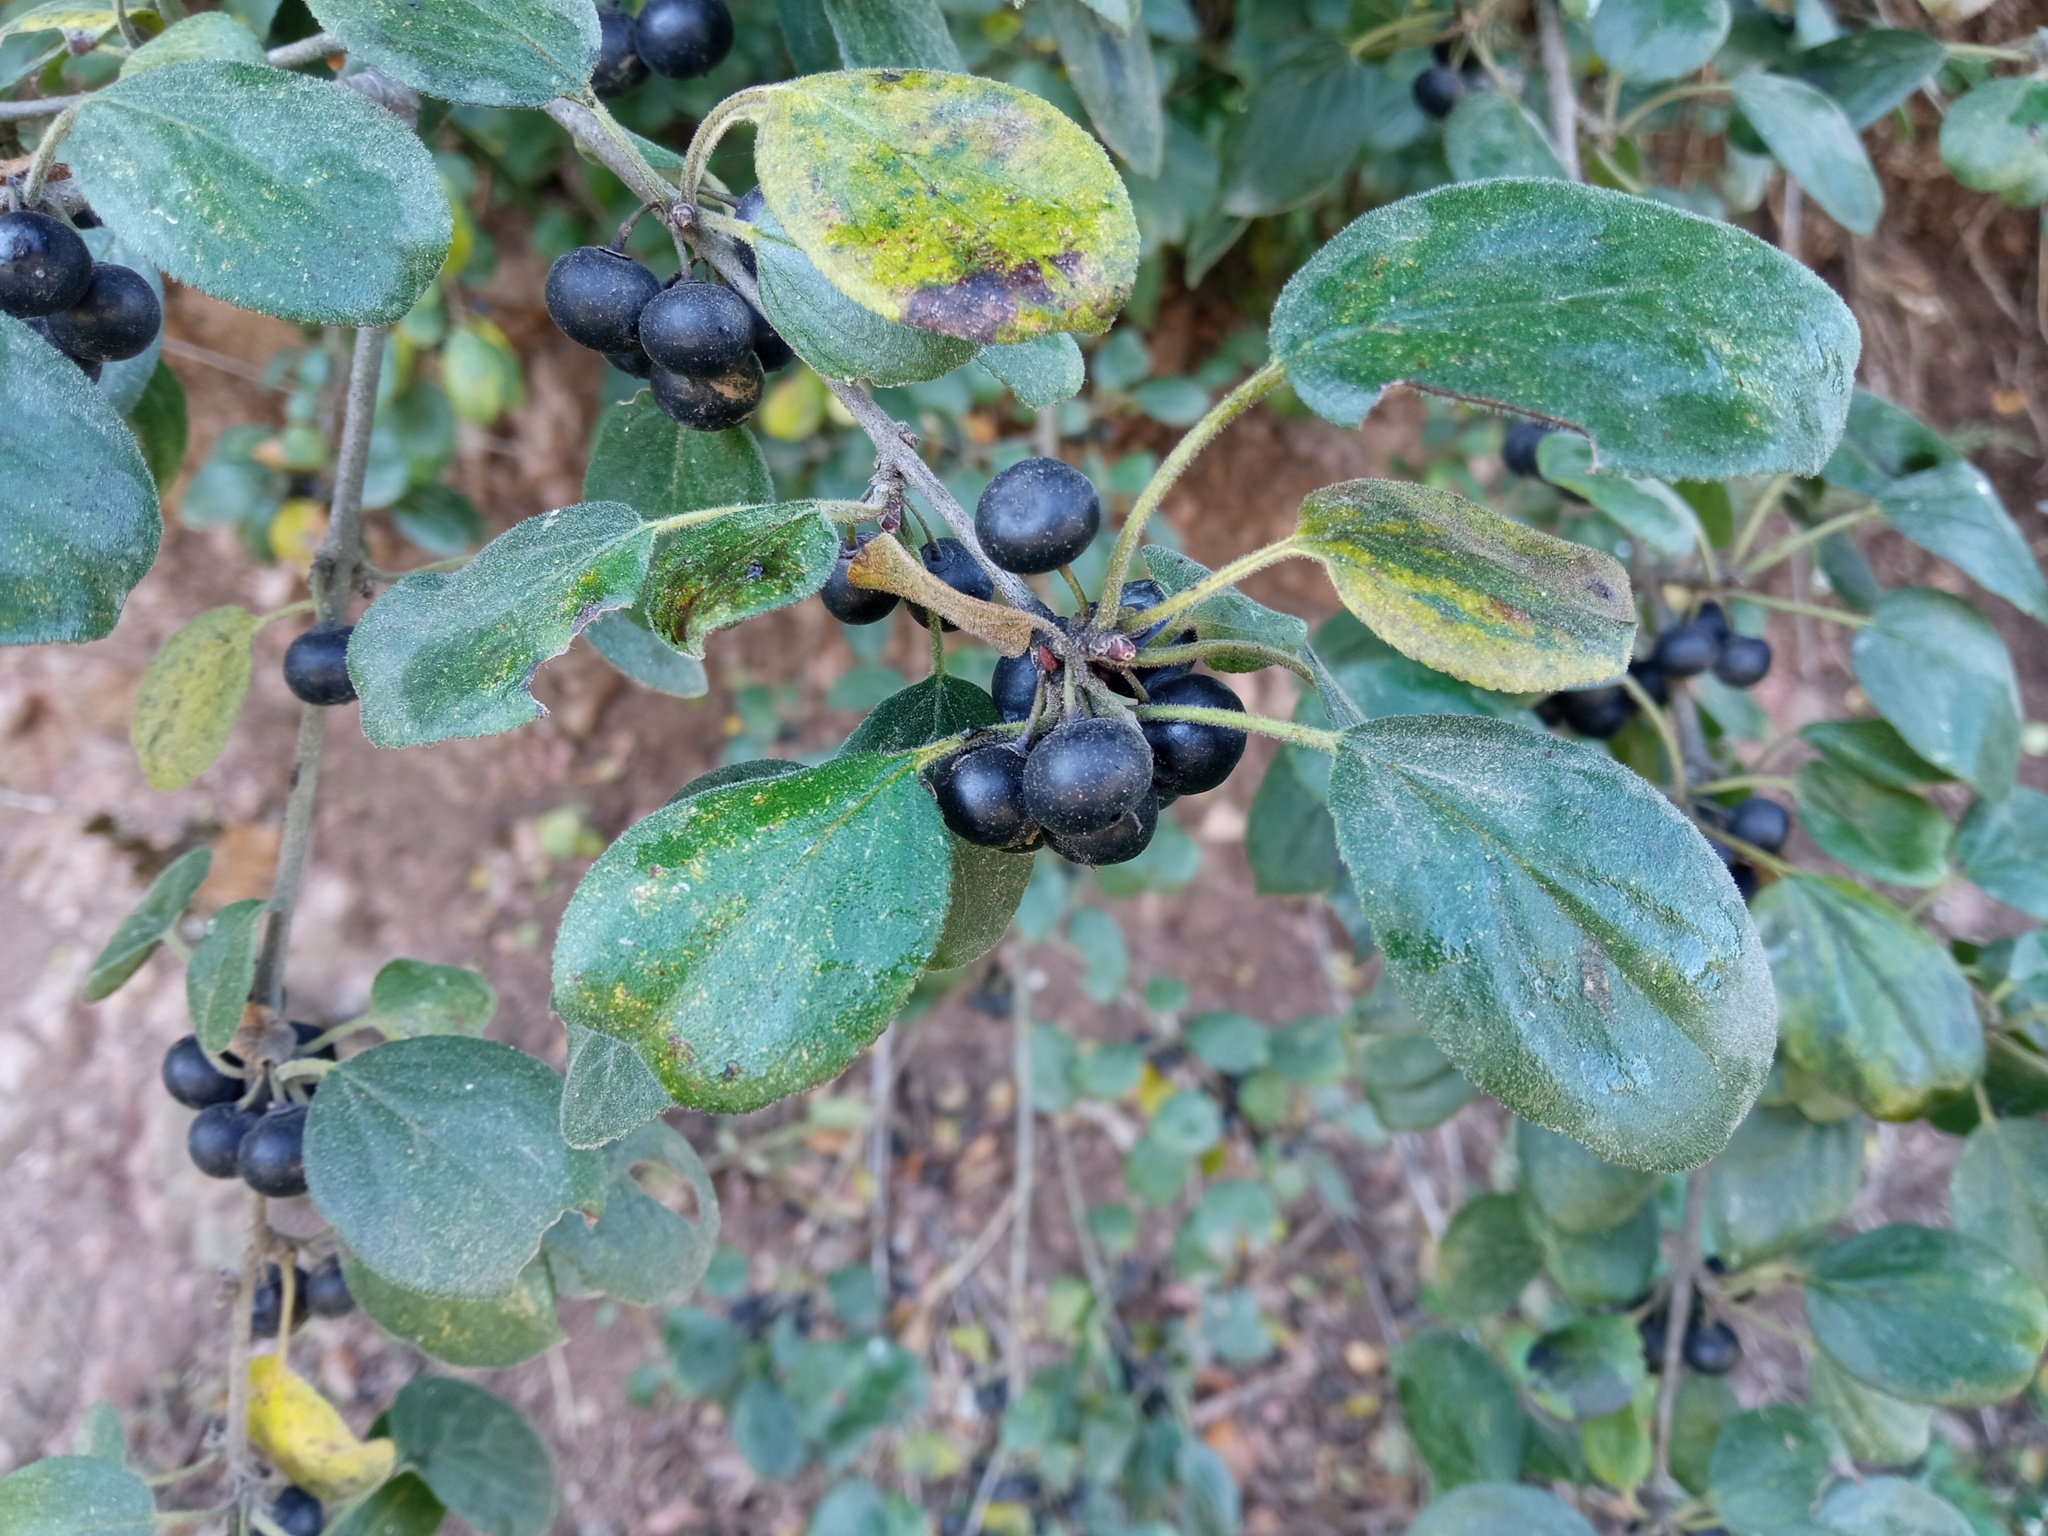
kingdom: Plantae
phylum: Tracheophyta
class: Magnoliopsida
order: Rosales
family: Rhamnaceae
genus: Rhamnus
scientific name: Rhamnus cathartica
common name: Common buckthorn
